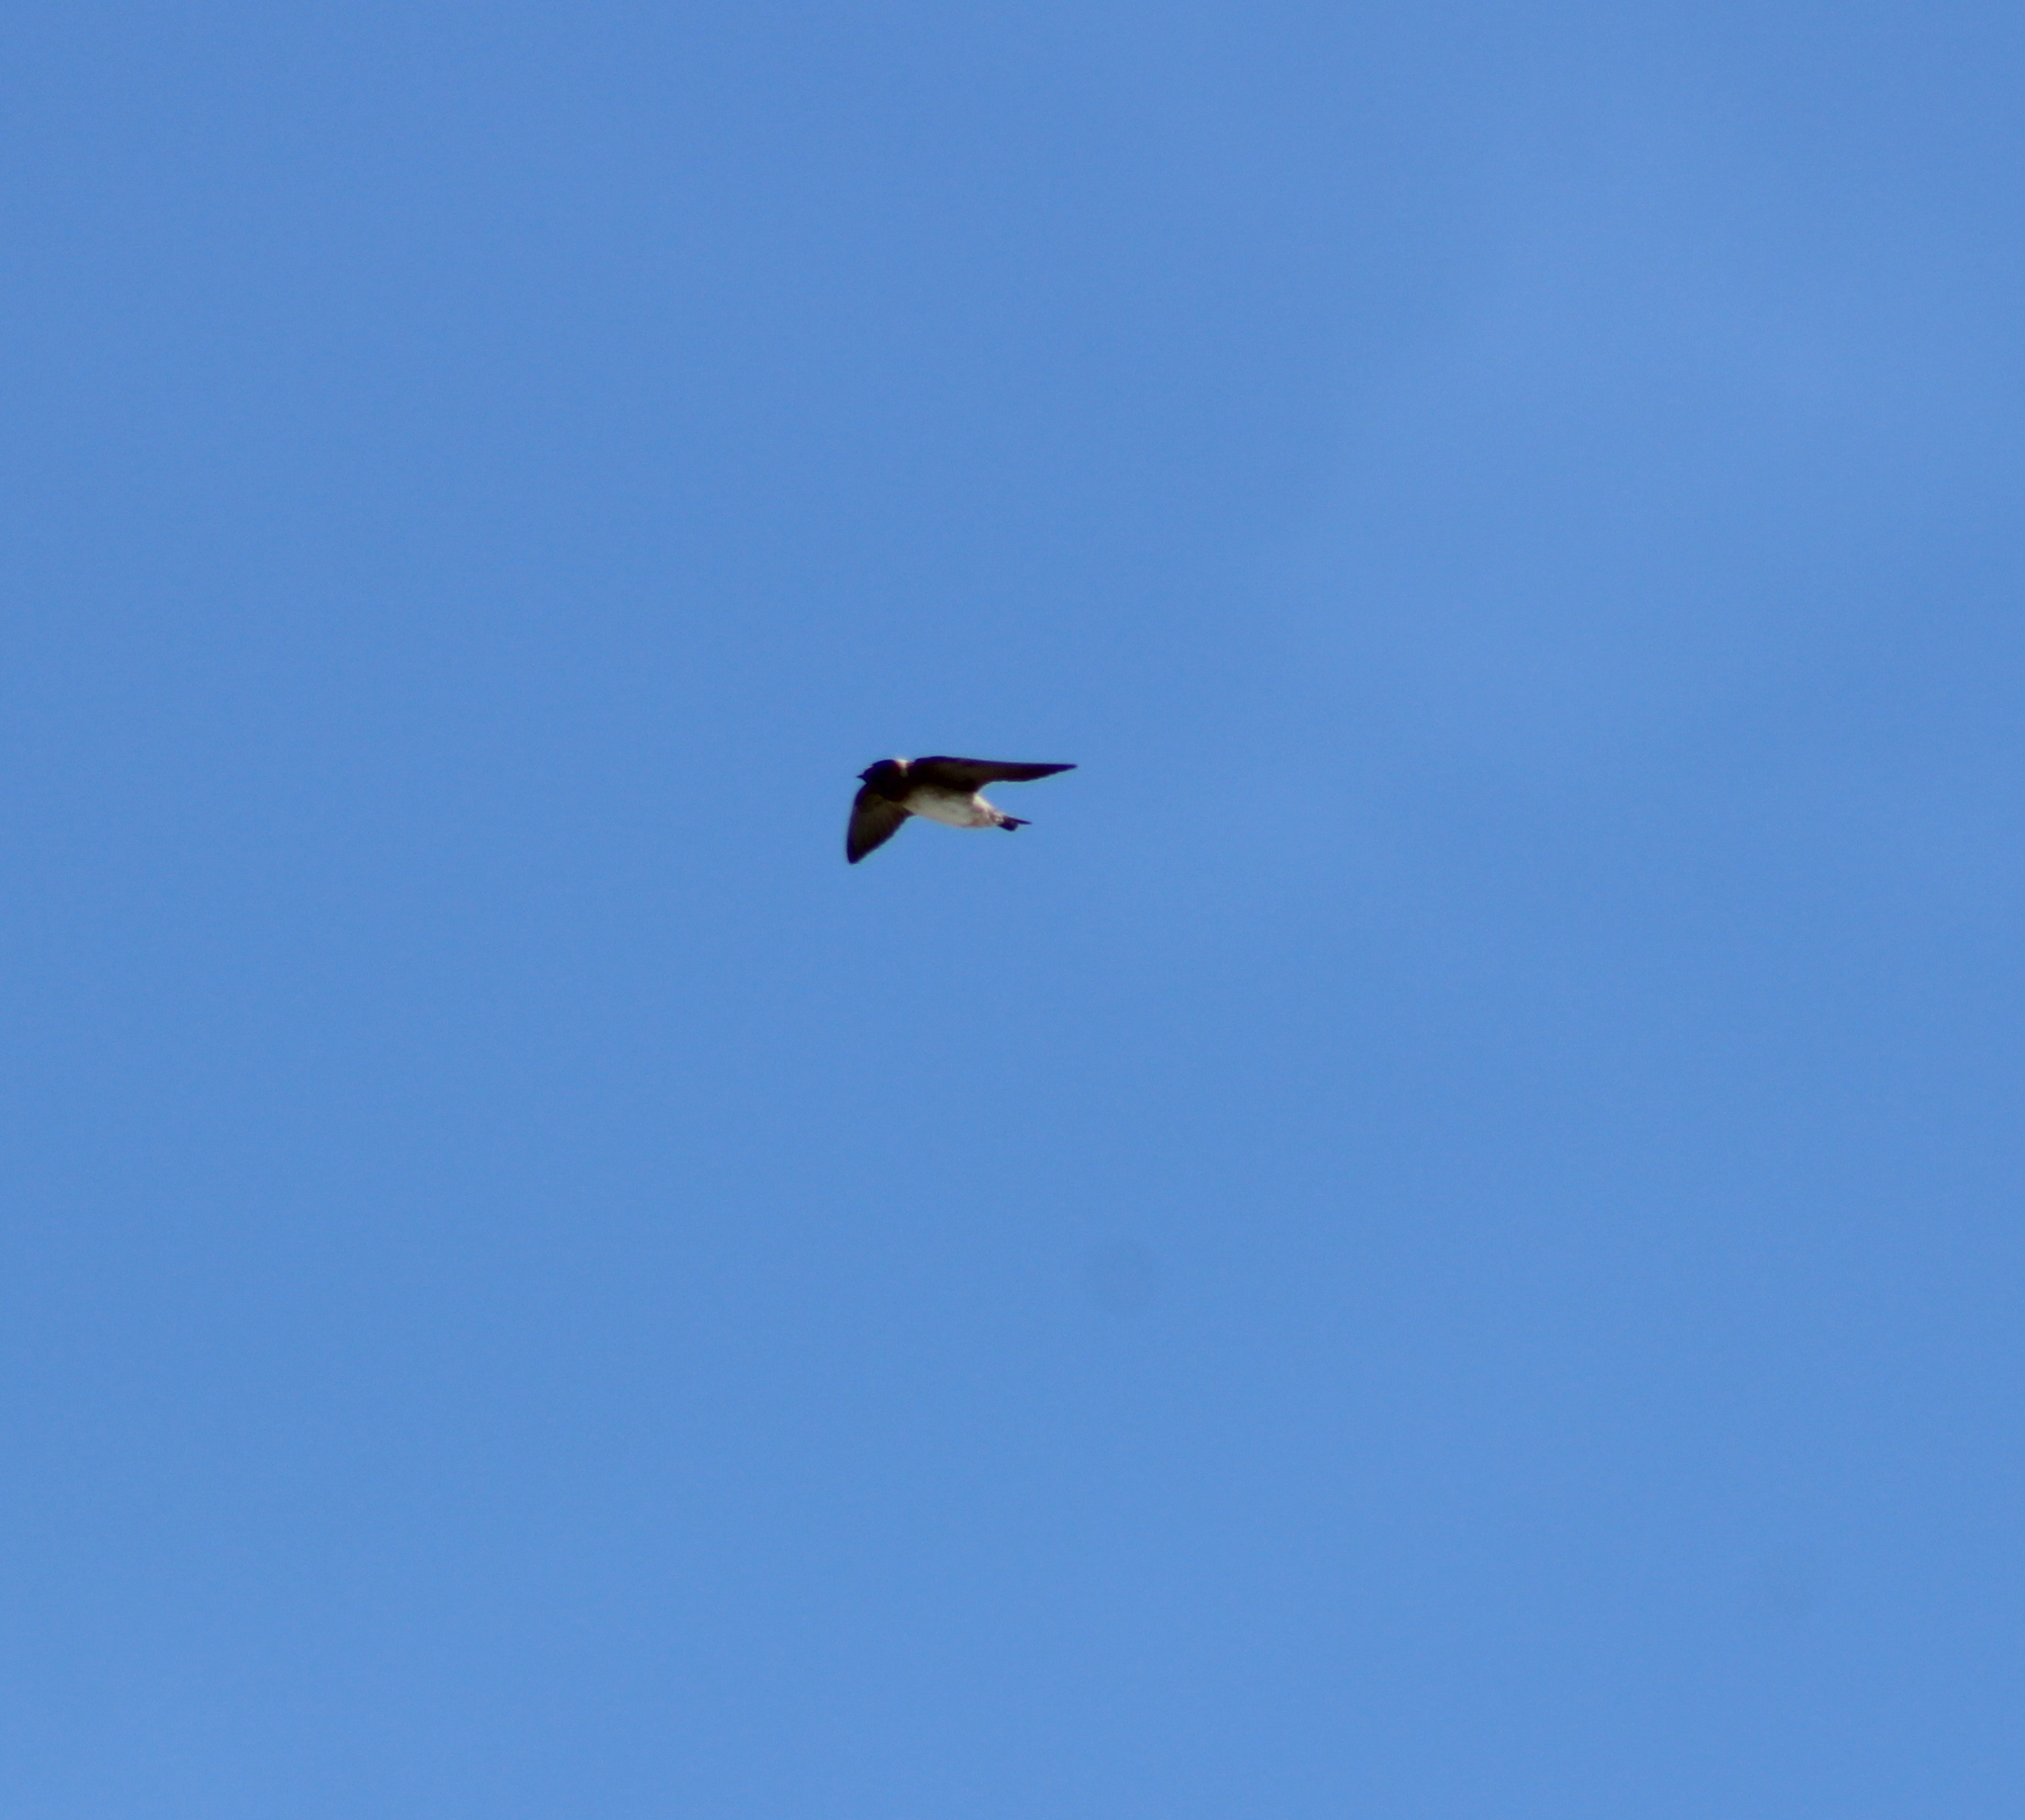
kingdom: Animalia
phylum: Chordata
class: Aves
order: Passeriformes
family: Hirundinidae
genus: Petrochelidon
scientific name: Petrochelidon pyrrhonota
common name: American cliff swallow
